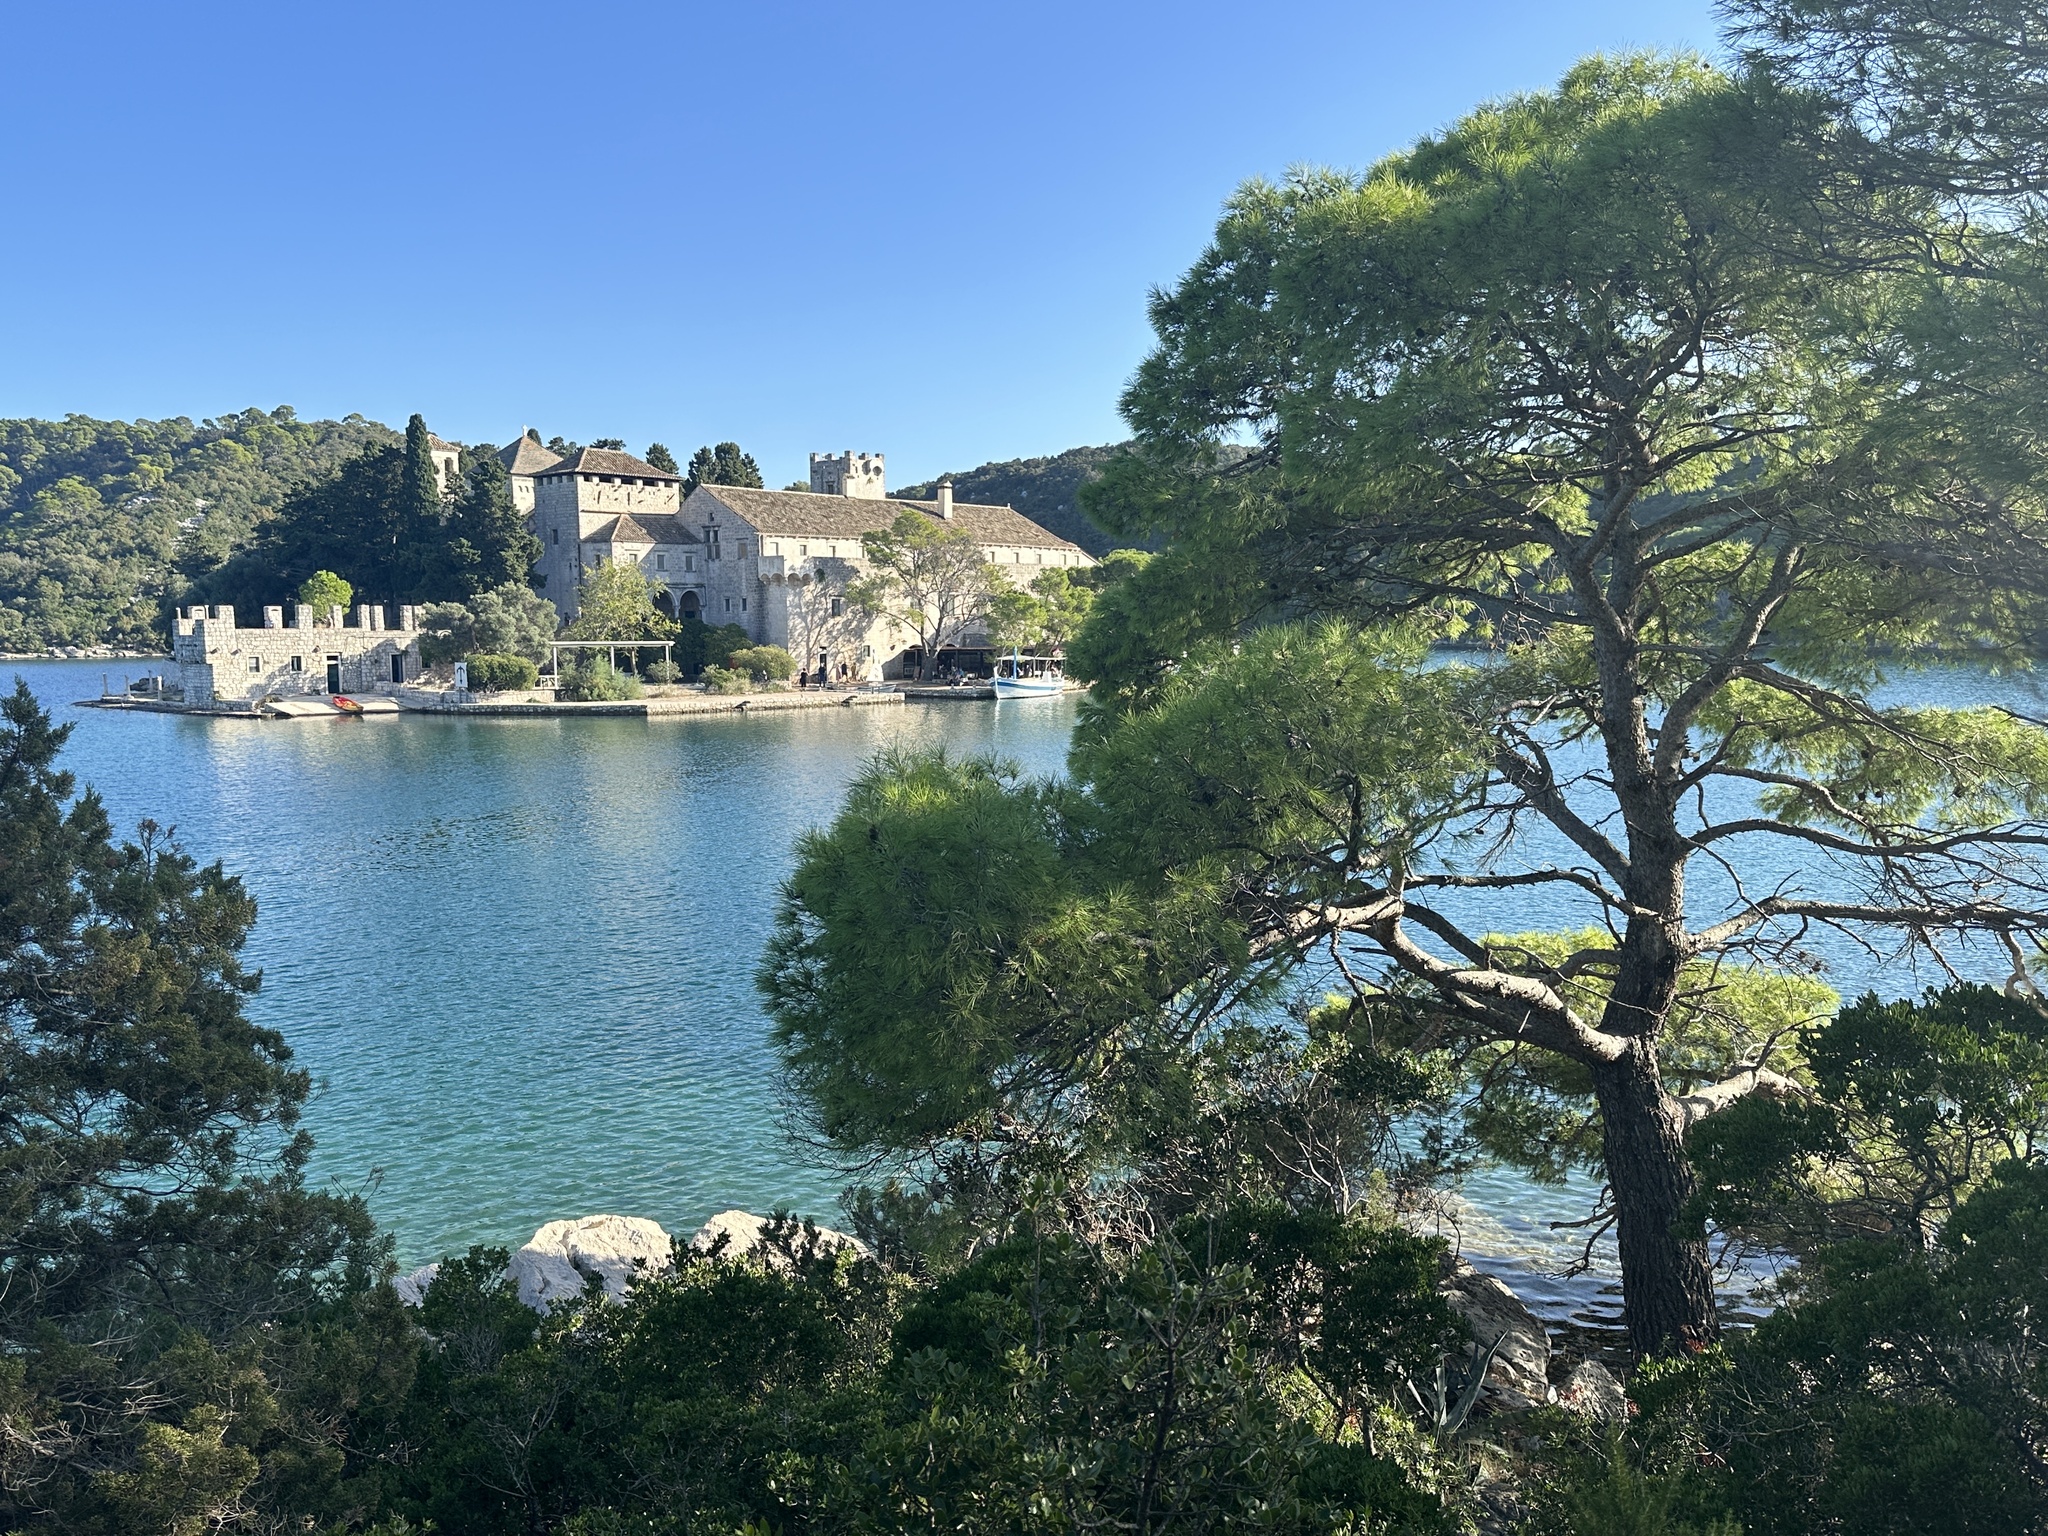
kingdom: Plantae
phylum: Tracheophyta
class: Pinopsida
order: Pinales
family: Pinaceae
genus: Pinus
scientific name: Pinus halepensis
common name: Aleppo pine
